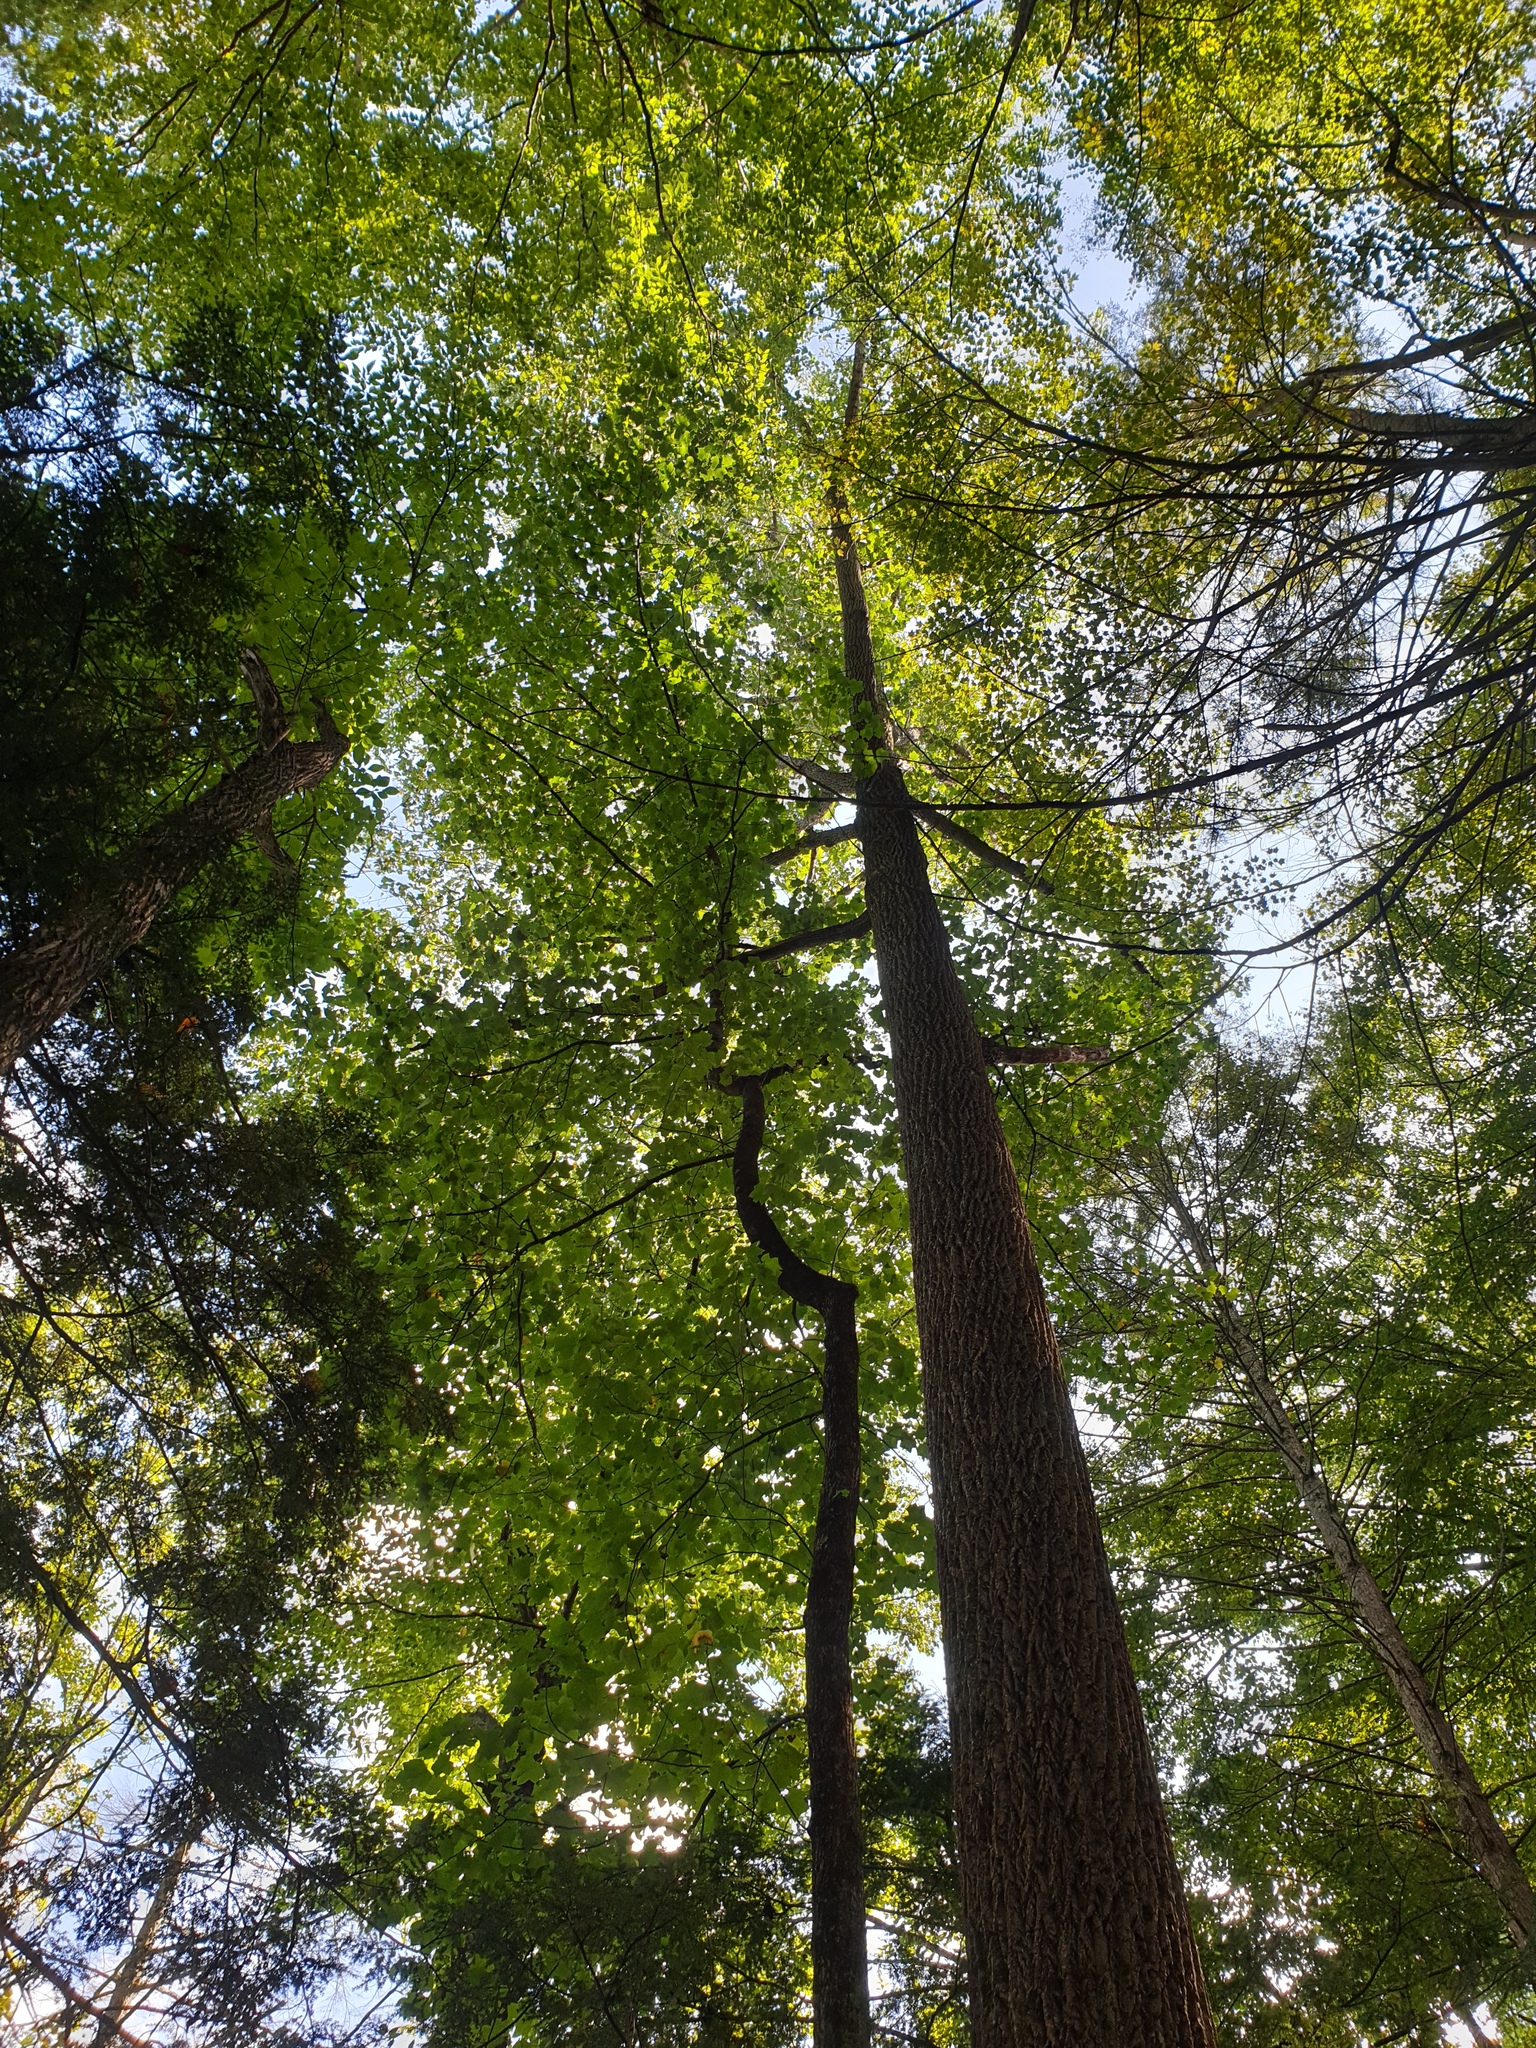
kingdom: Plantae
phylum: Tracheophyta
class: Magnoliopsida
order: Magnoliales
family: Magnoliaceae
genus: Liriodendron
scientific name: Liriodendron tulipifera
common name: Tulip tree
